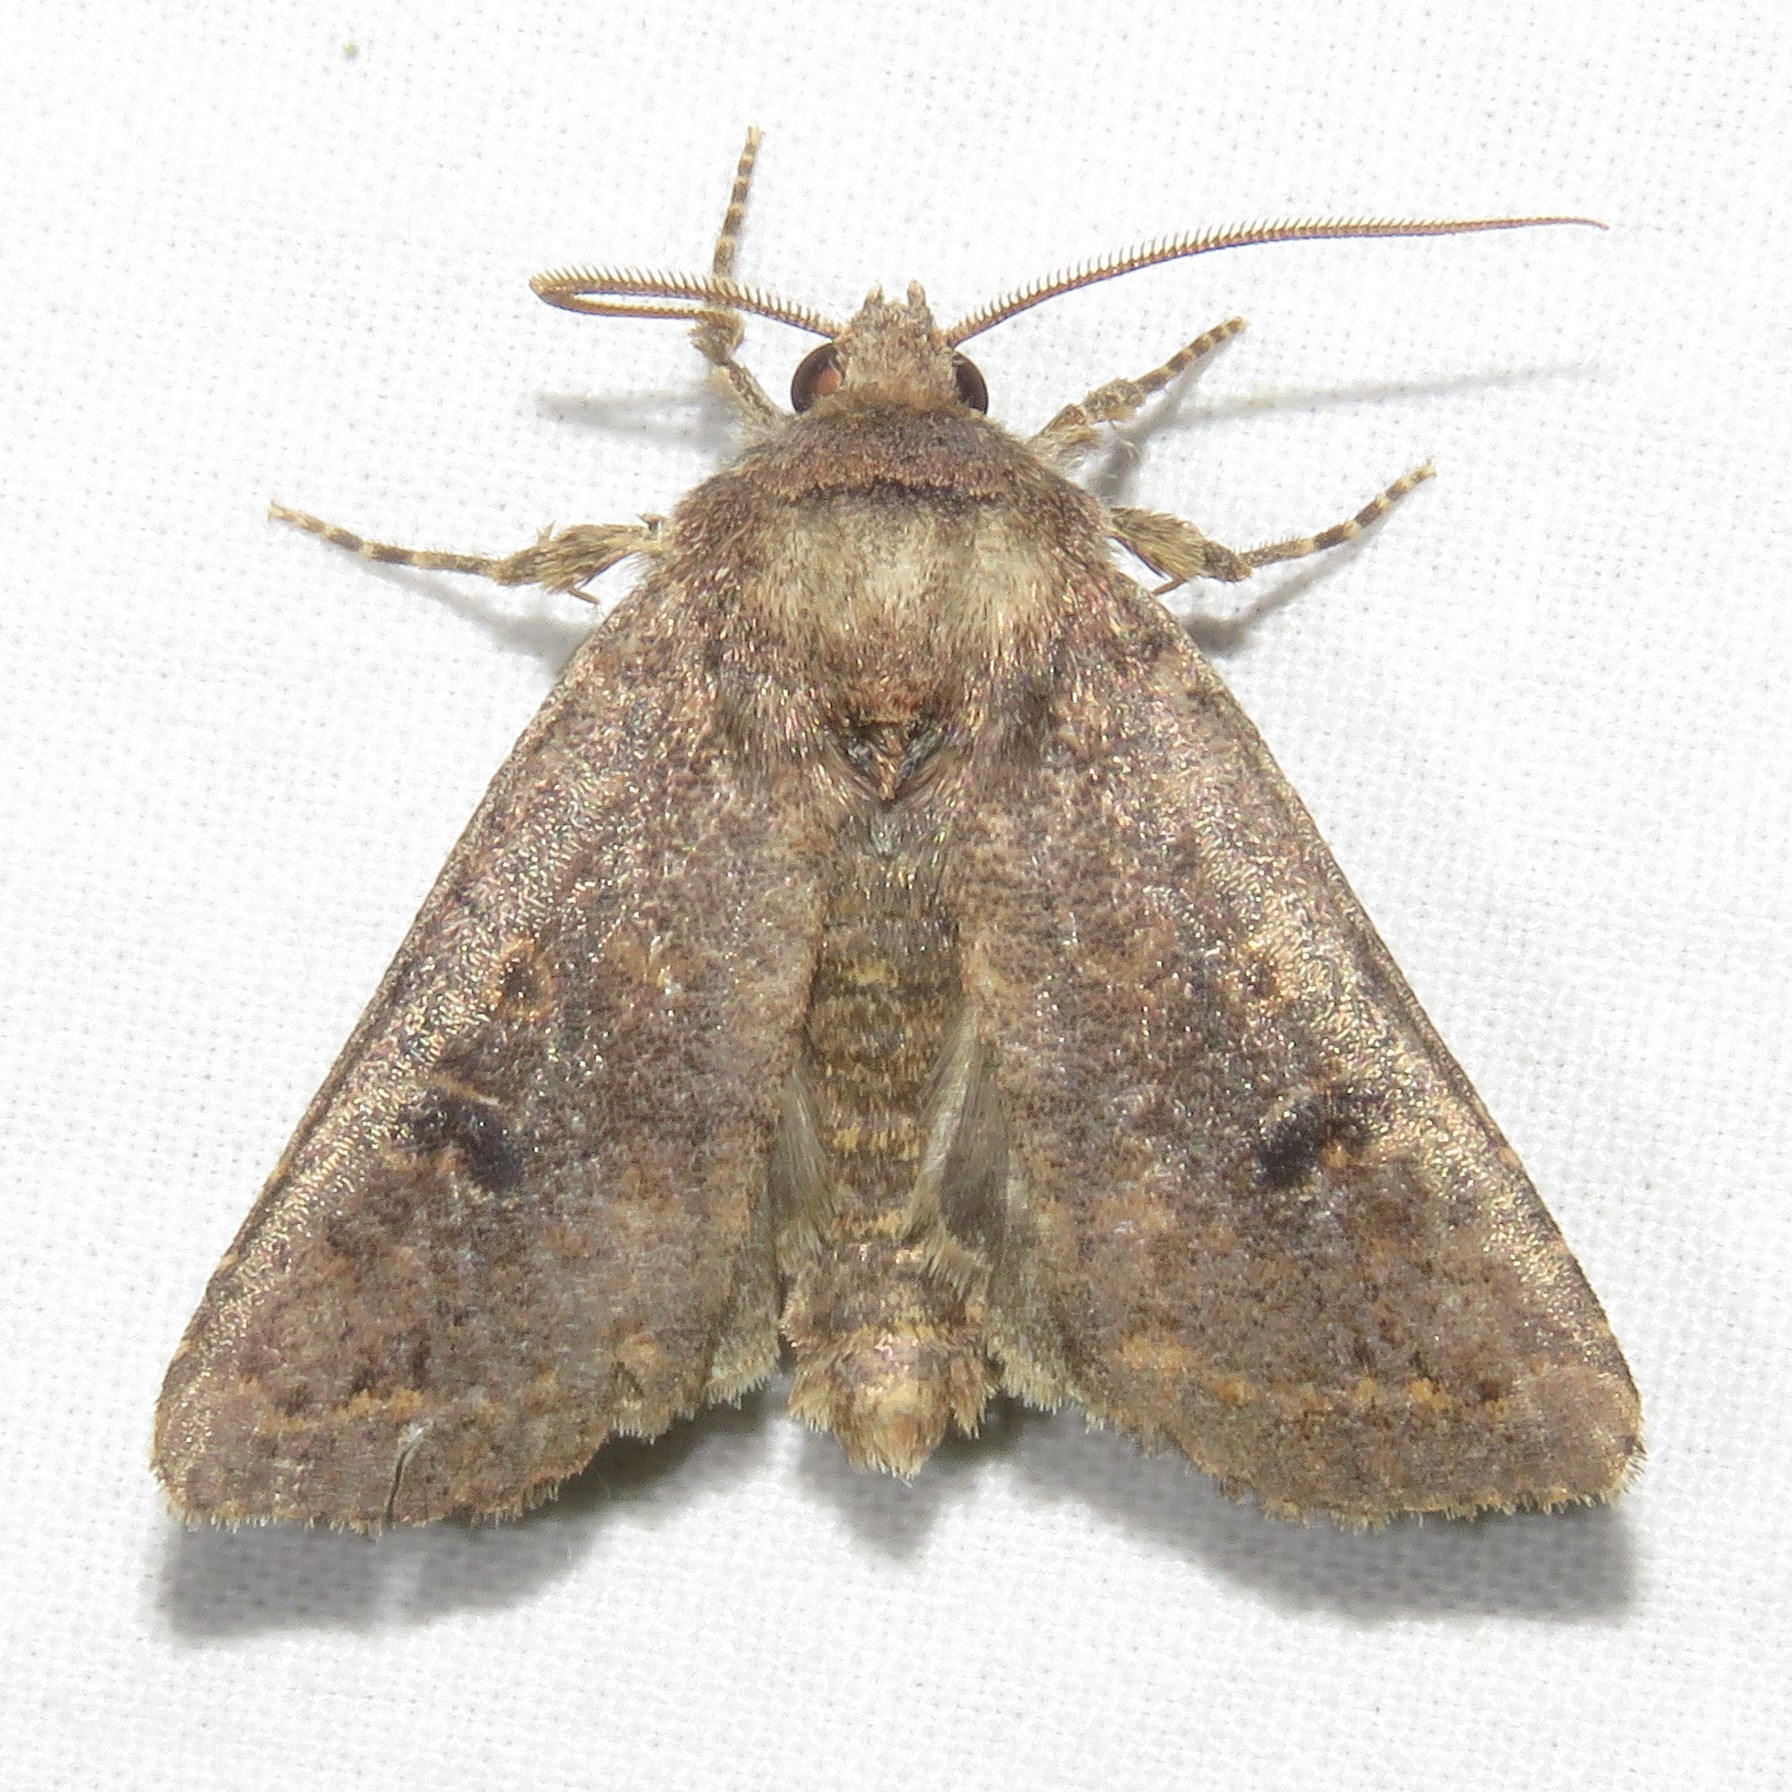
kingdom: Animalia
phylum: Arthropoda
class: Insecta
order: Lepidoptera
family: Noctuidae
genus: Orthosia
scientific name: Orthosia hibisci
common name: Green fruitworm
